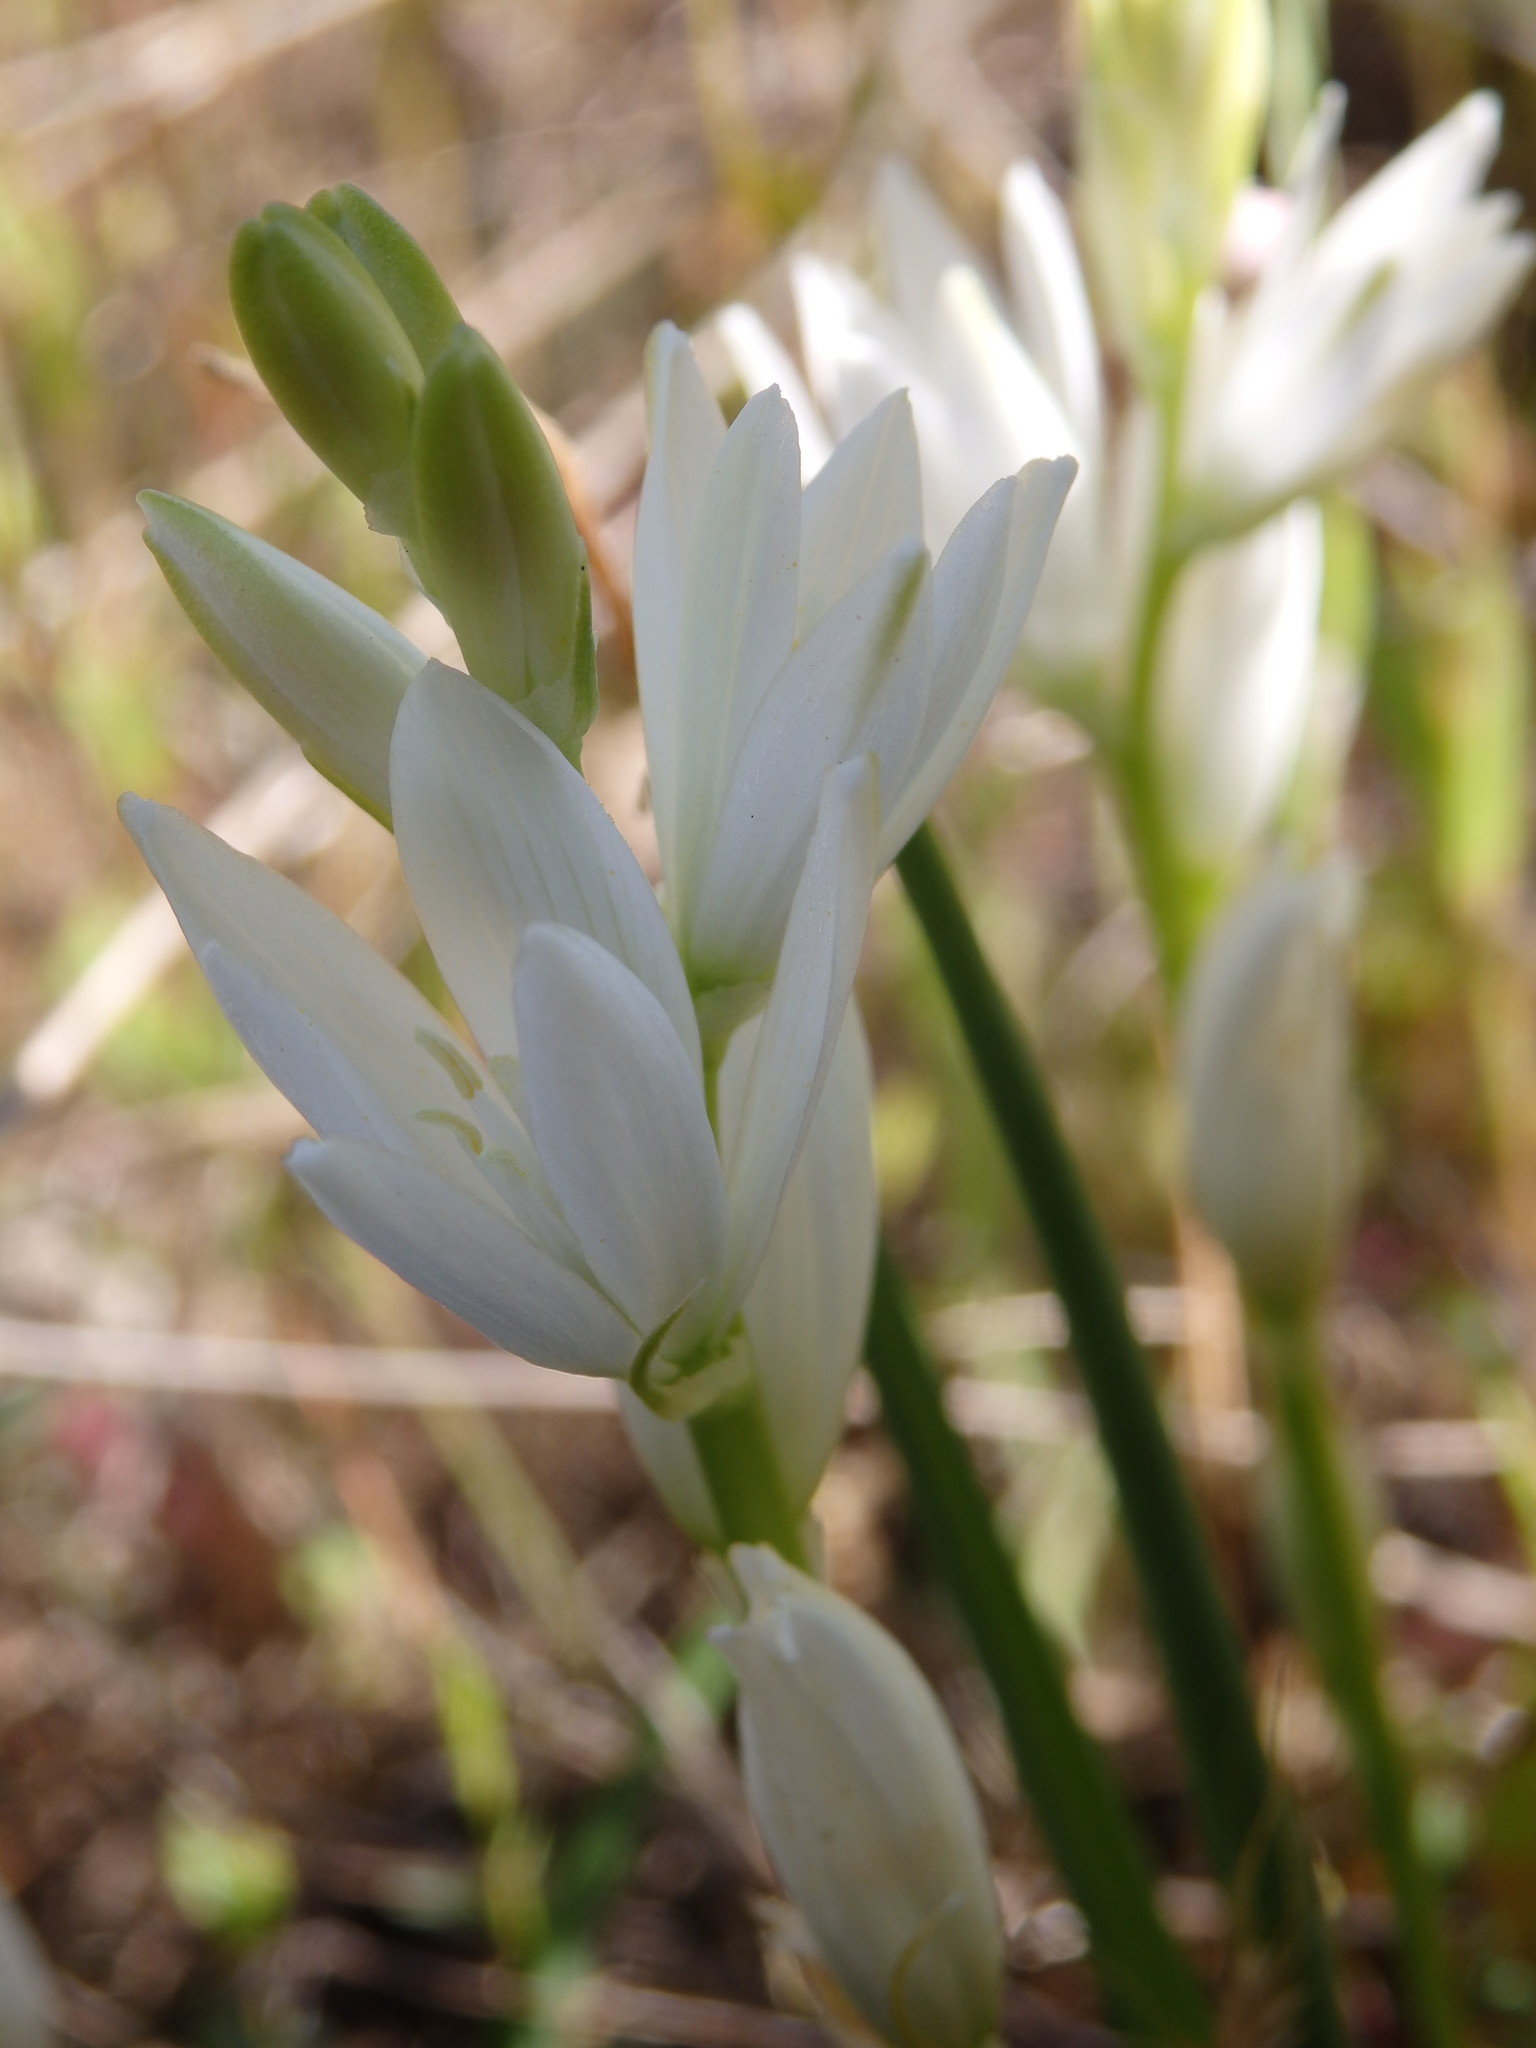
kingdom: Plantae
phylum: Tracheophyta
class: Liliopsida
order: Asparagales
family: Asparagaceae
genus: Ornithogalum
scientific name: Ornithogalum concinnum
